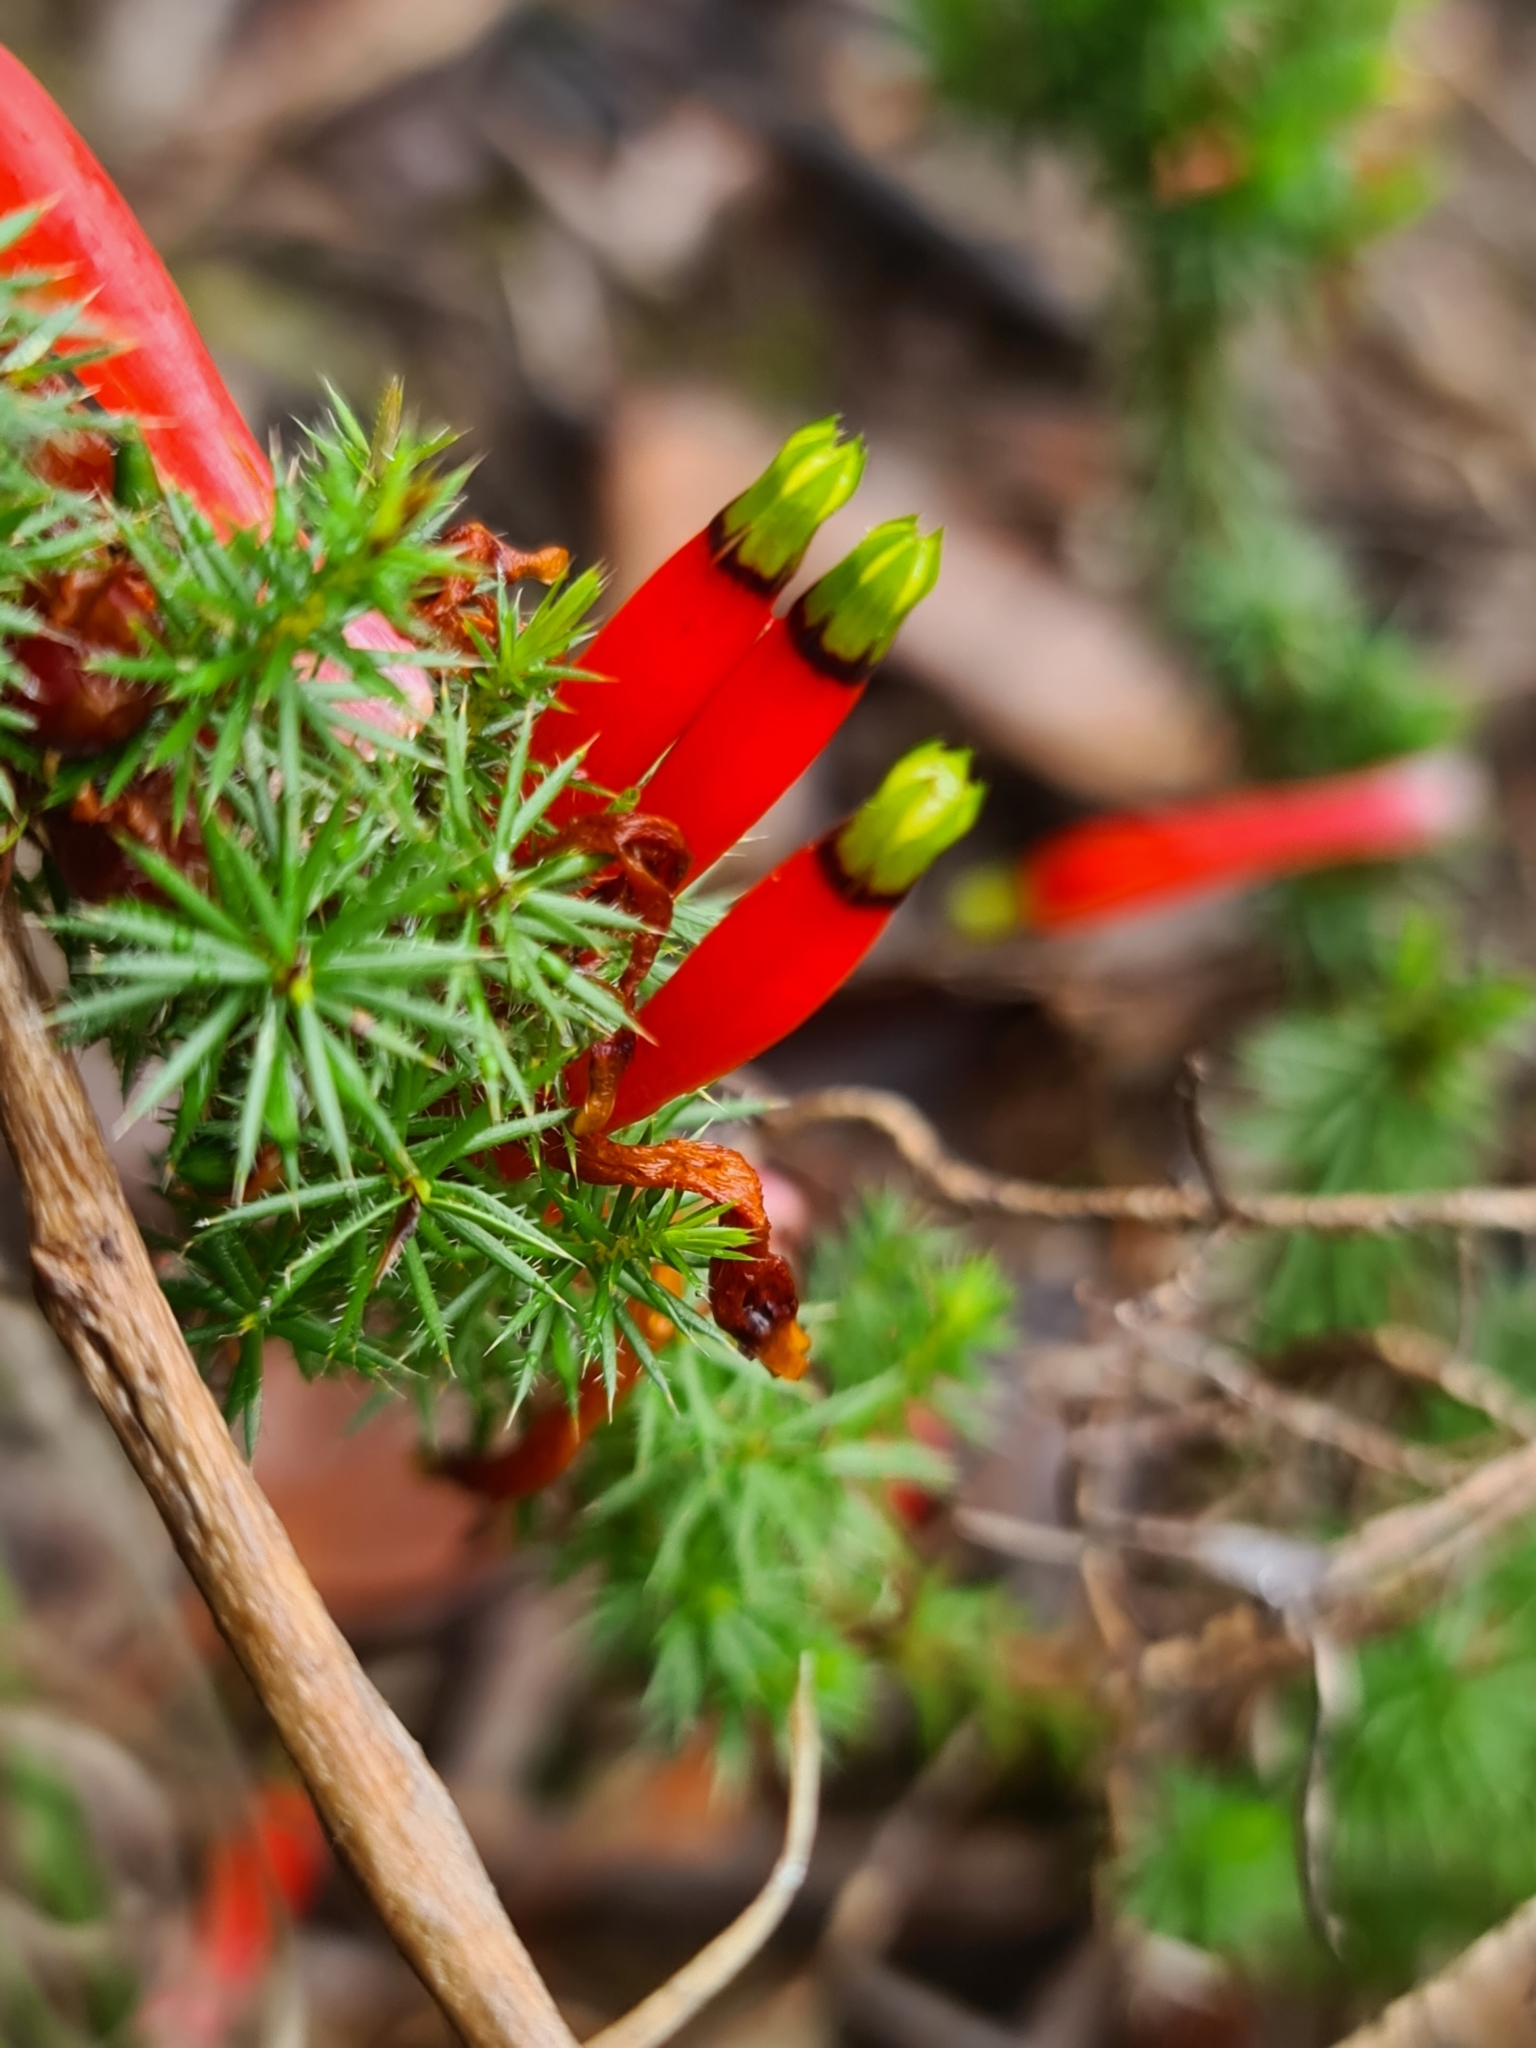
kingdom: Plantae
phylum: Tracheophyta
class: Magnoliopsida
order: Ericales
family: Ericaceae
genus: Styphelia
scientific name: Styphelia foliosa
